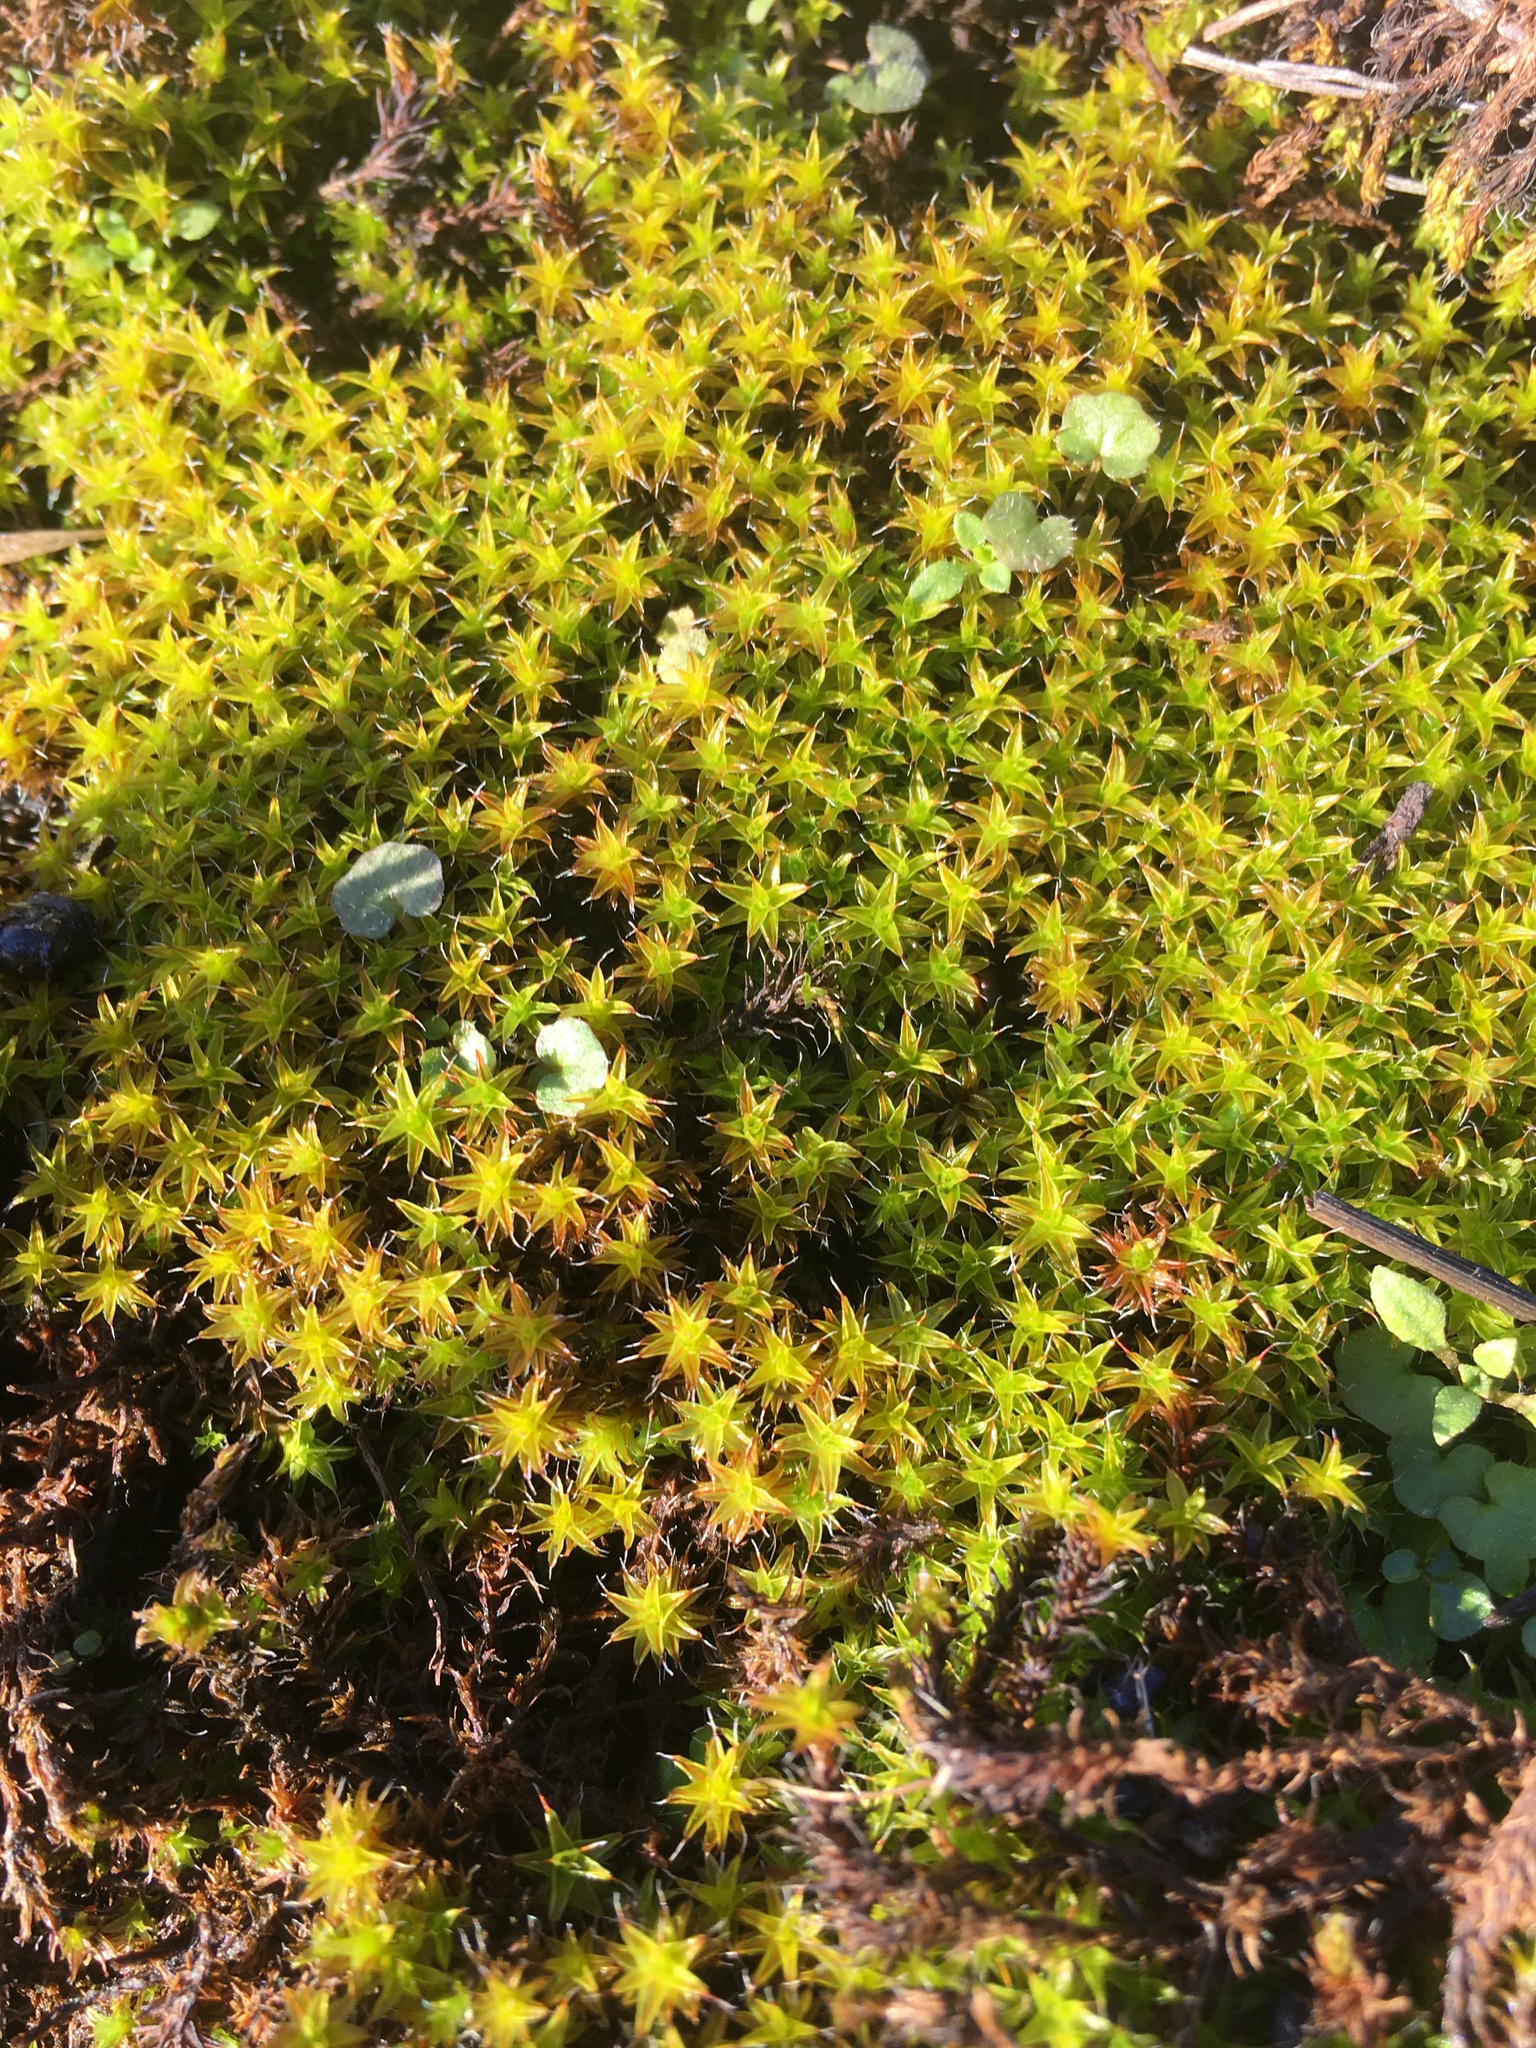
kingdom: Plantae
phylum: Bryophyta
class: Bryopsida
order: Pottiales
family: Pottiaceae
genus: Syntrichia
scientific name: Syntrichia ruralis
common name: Sidewalk screw moss
